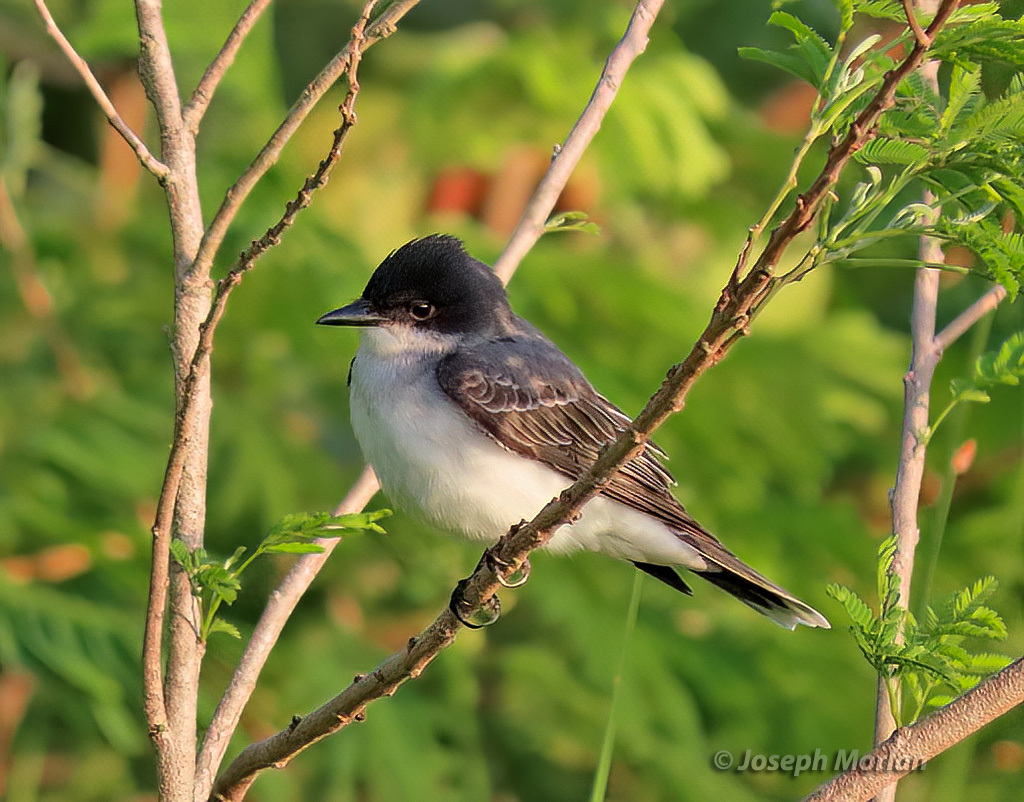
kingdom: Animalia
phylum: Chordata
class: Aves
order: Passeriformes
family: Tyrannidae
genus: Tyrannus
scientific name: Tyrannus tyrannus
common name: Eastern kingbird
